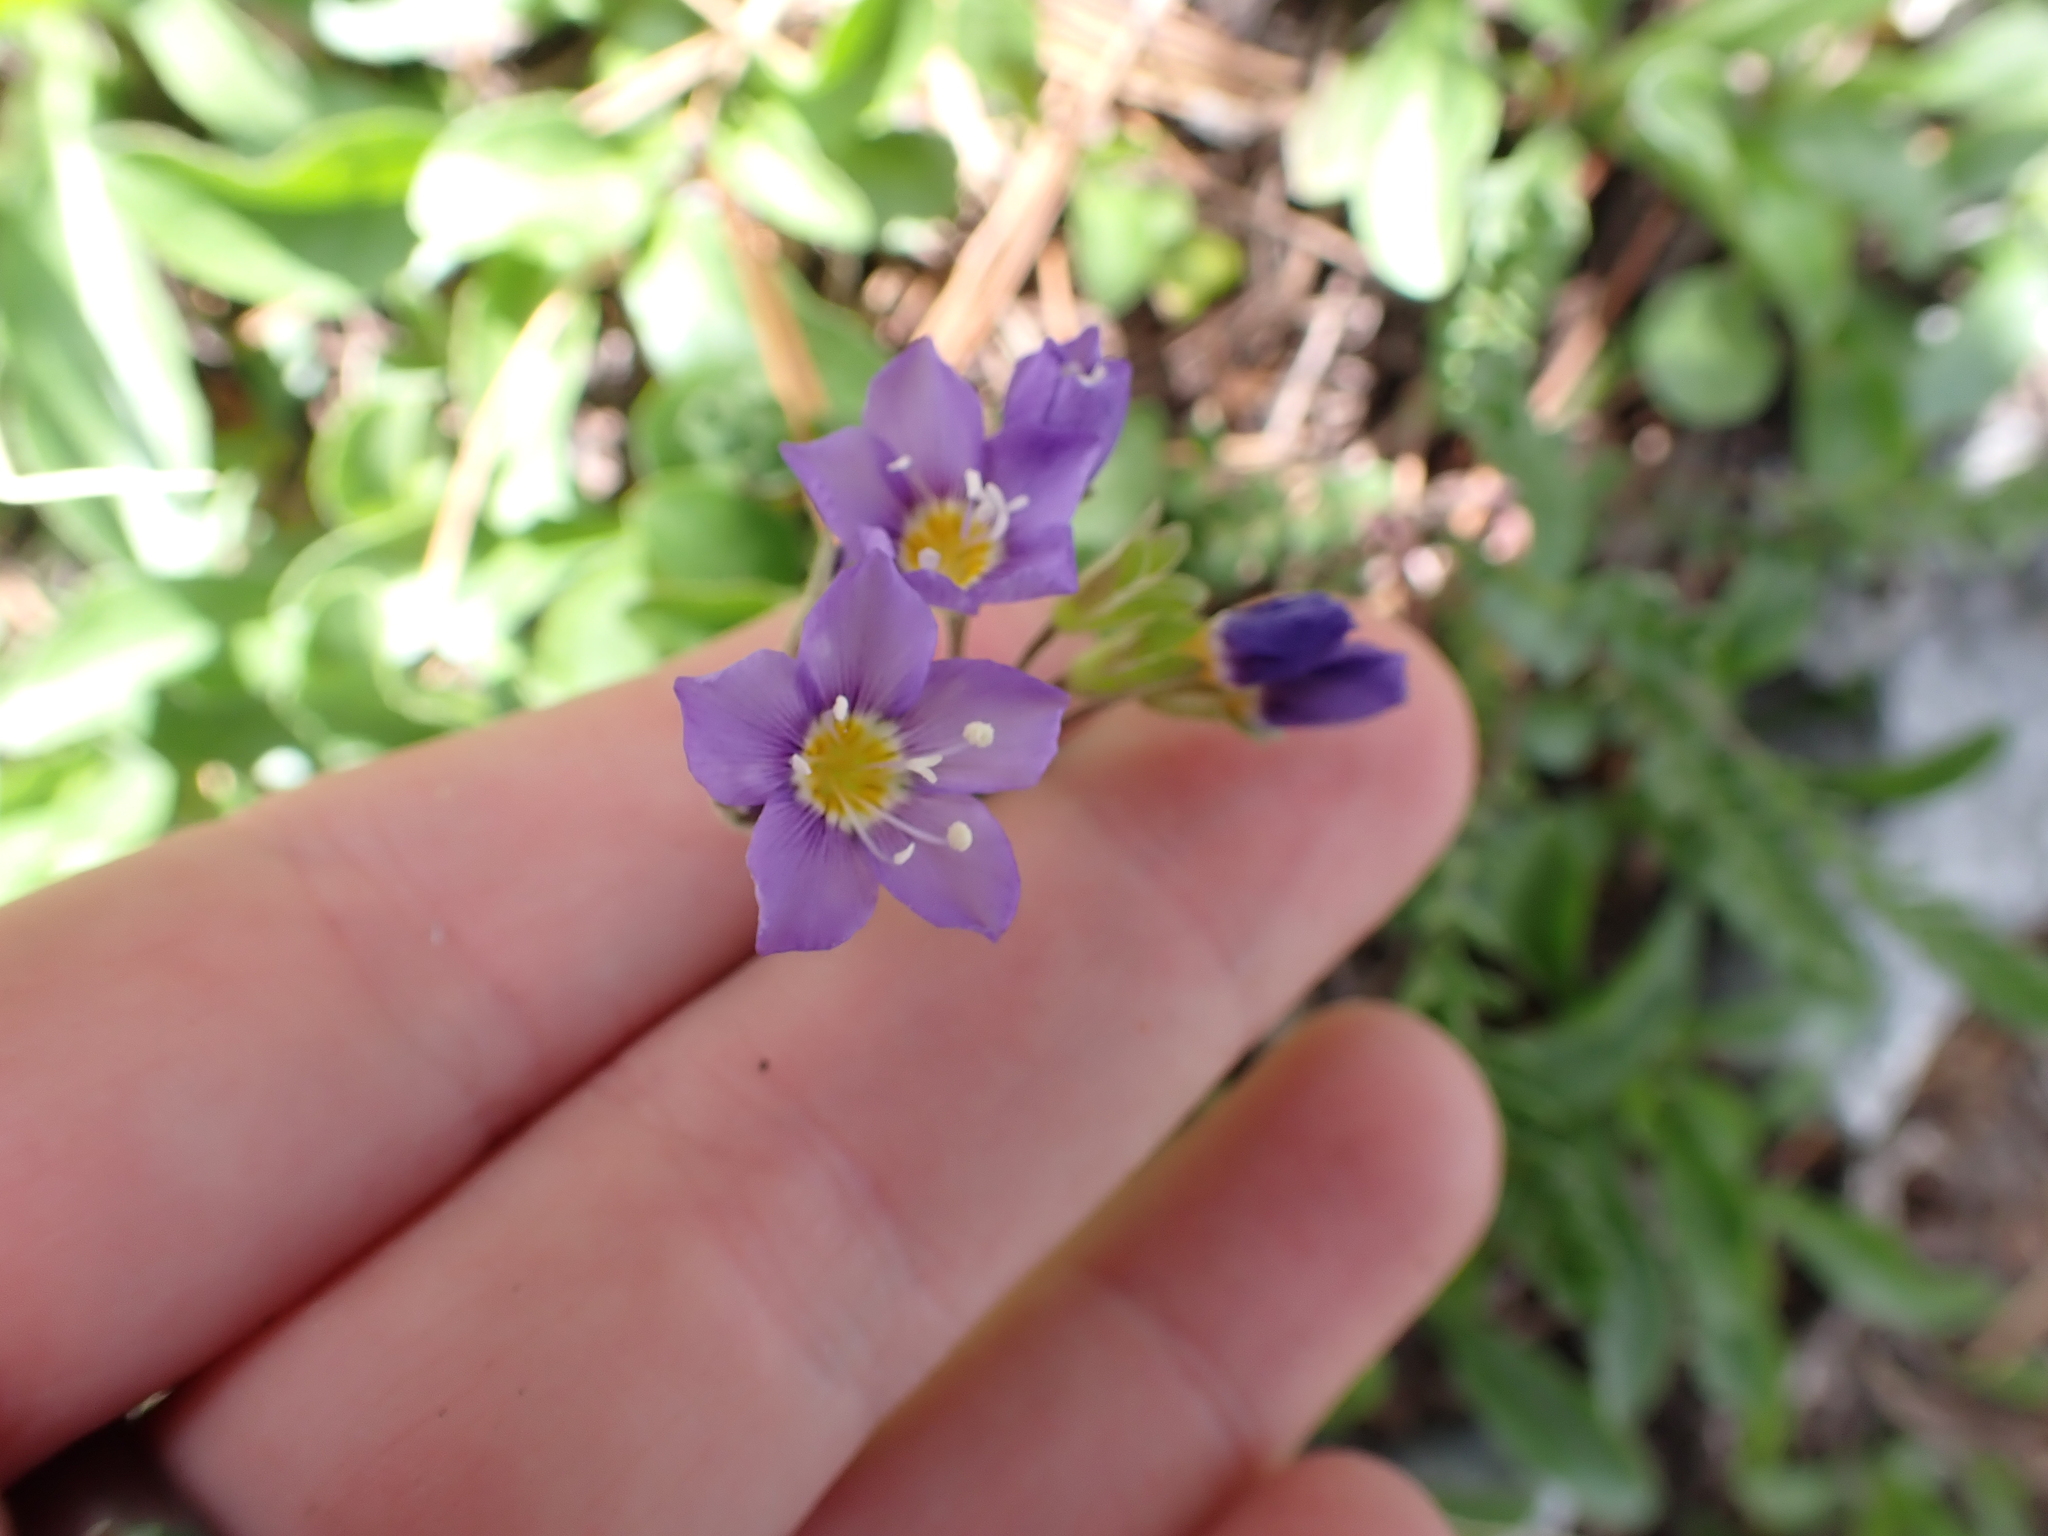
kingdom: Plantae
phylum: Tracheophyta
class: Magnoliopsida
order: Ericales
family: Polemoniaceae
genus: Polemonium
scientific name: Polemonium pulcherrimum
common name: Short jacob's-ladder
